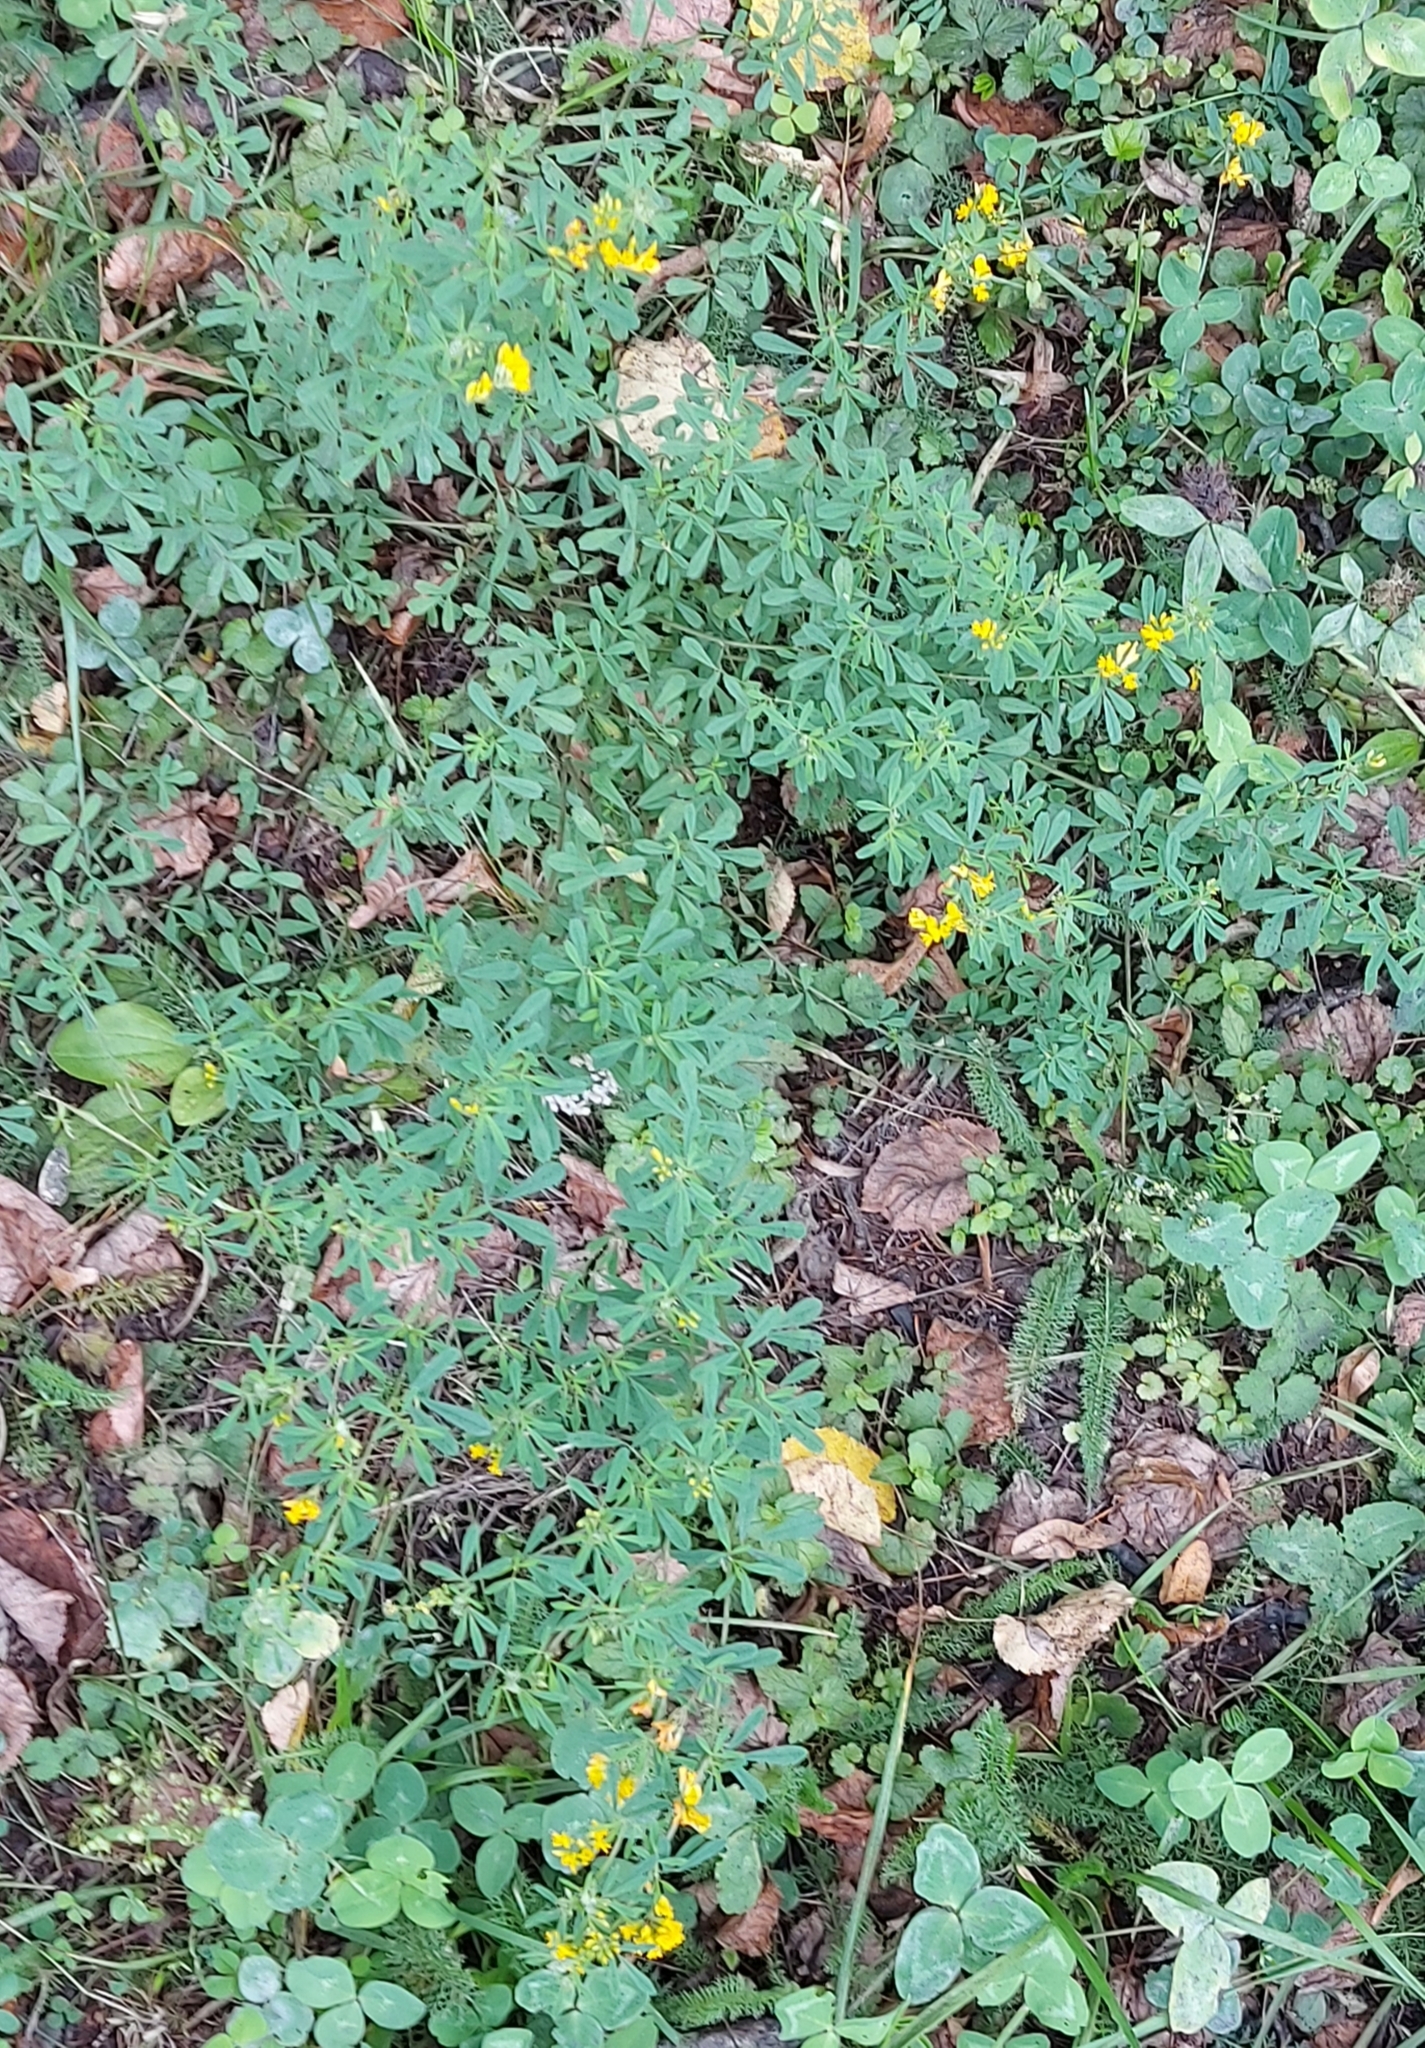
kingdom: Plantae
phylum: Tracheophyta
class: Magnoliopsida
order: Fabales
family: Fabaceae
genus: Medicago
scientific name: Medicago falcata
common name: Sickle medick
